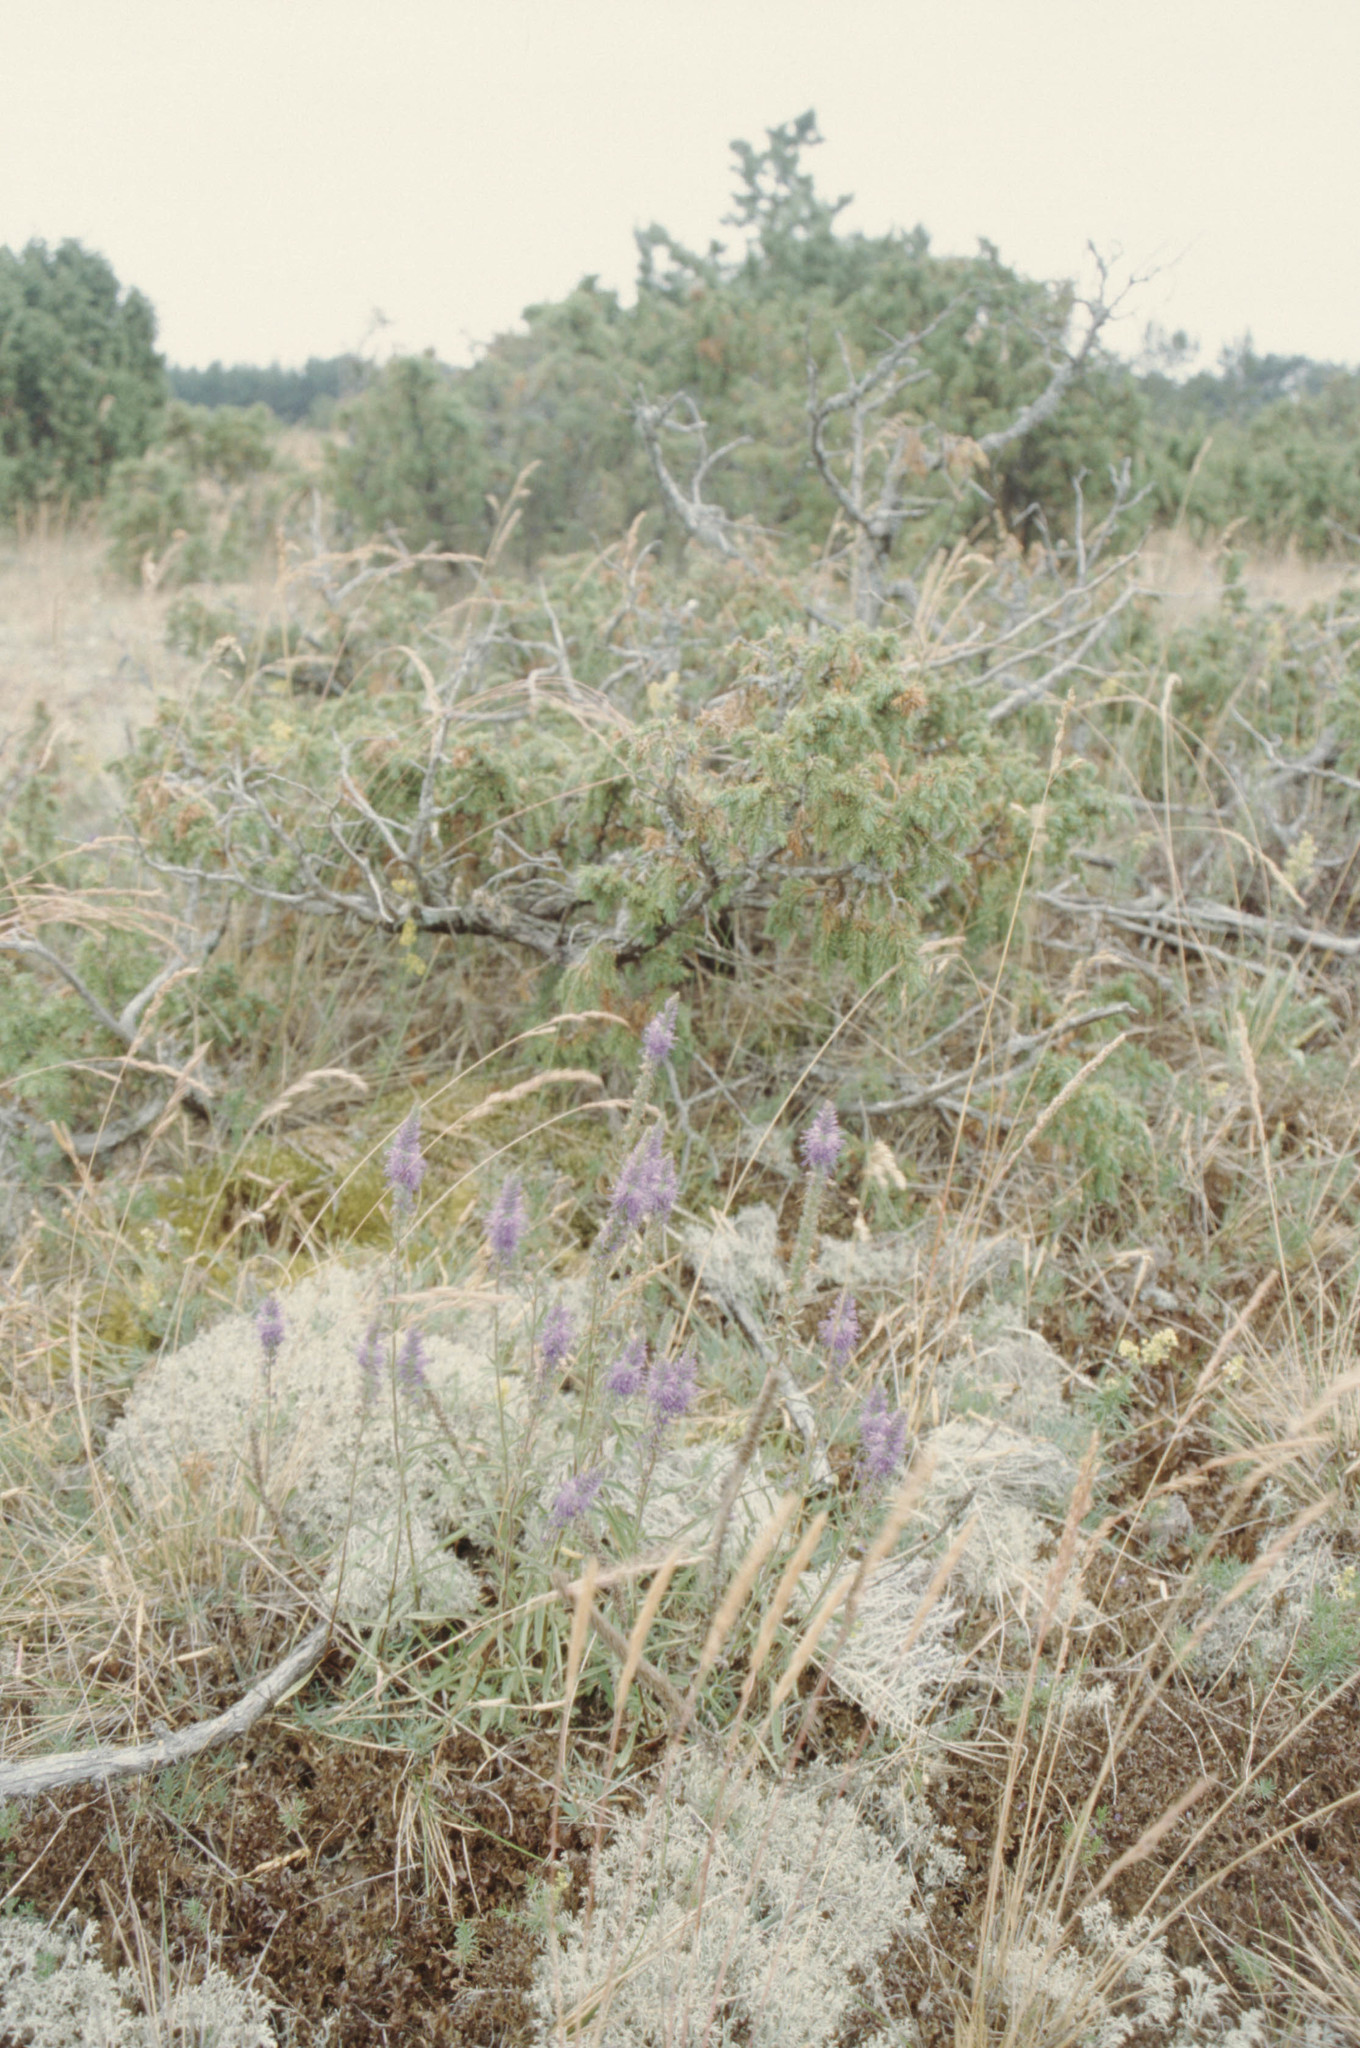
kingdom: Plantae
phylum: Tracheophyta
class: Magnoliopsida
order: Lamiales
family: Plantaginaceae
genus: Veronica
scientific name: Veronica spicata
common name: Spiked speedwell
